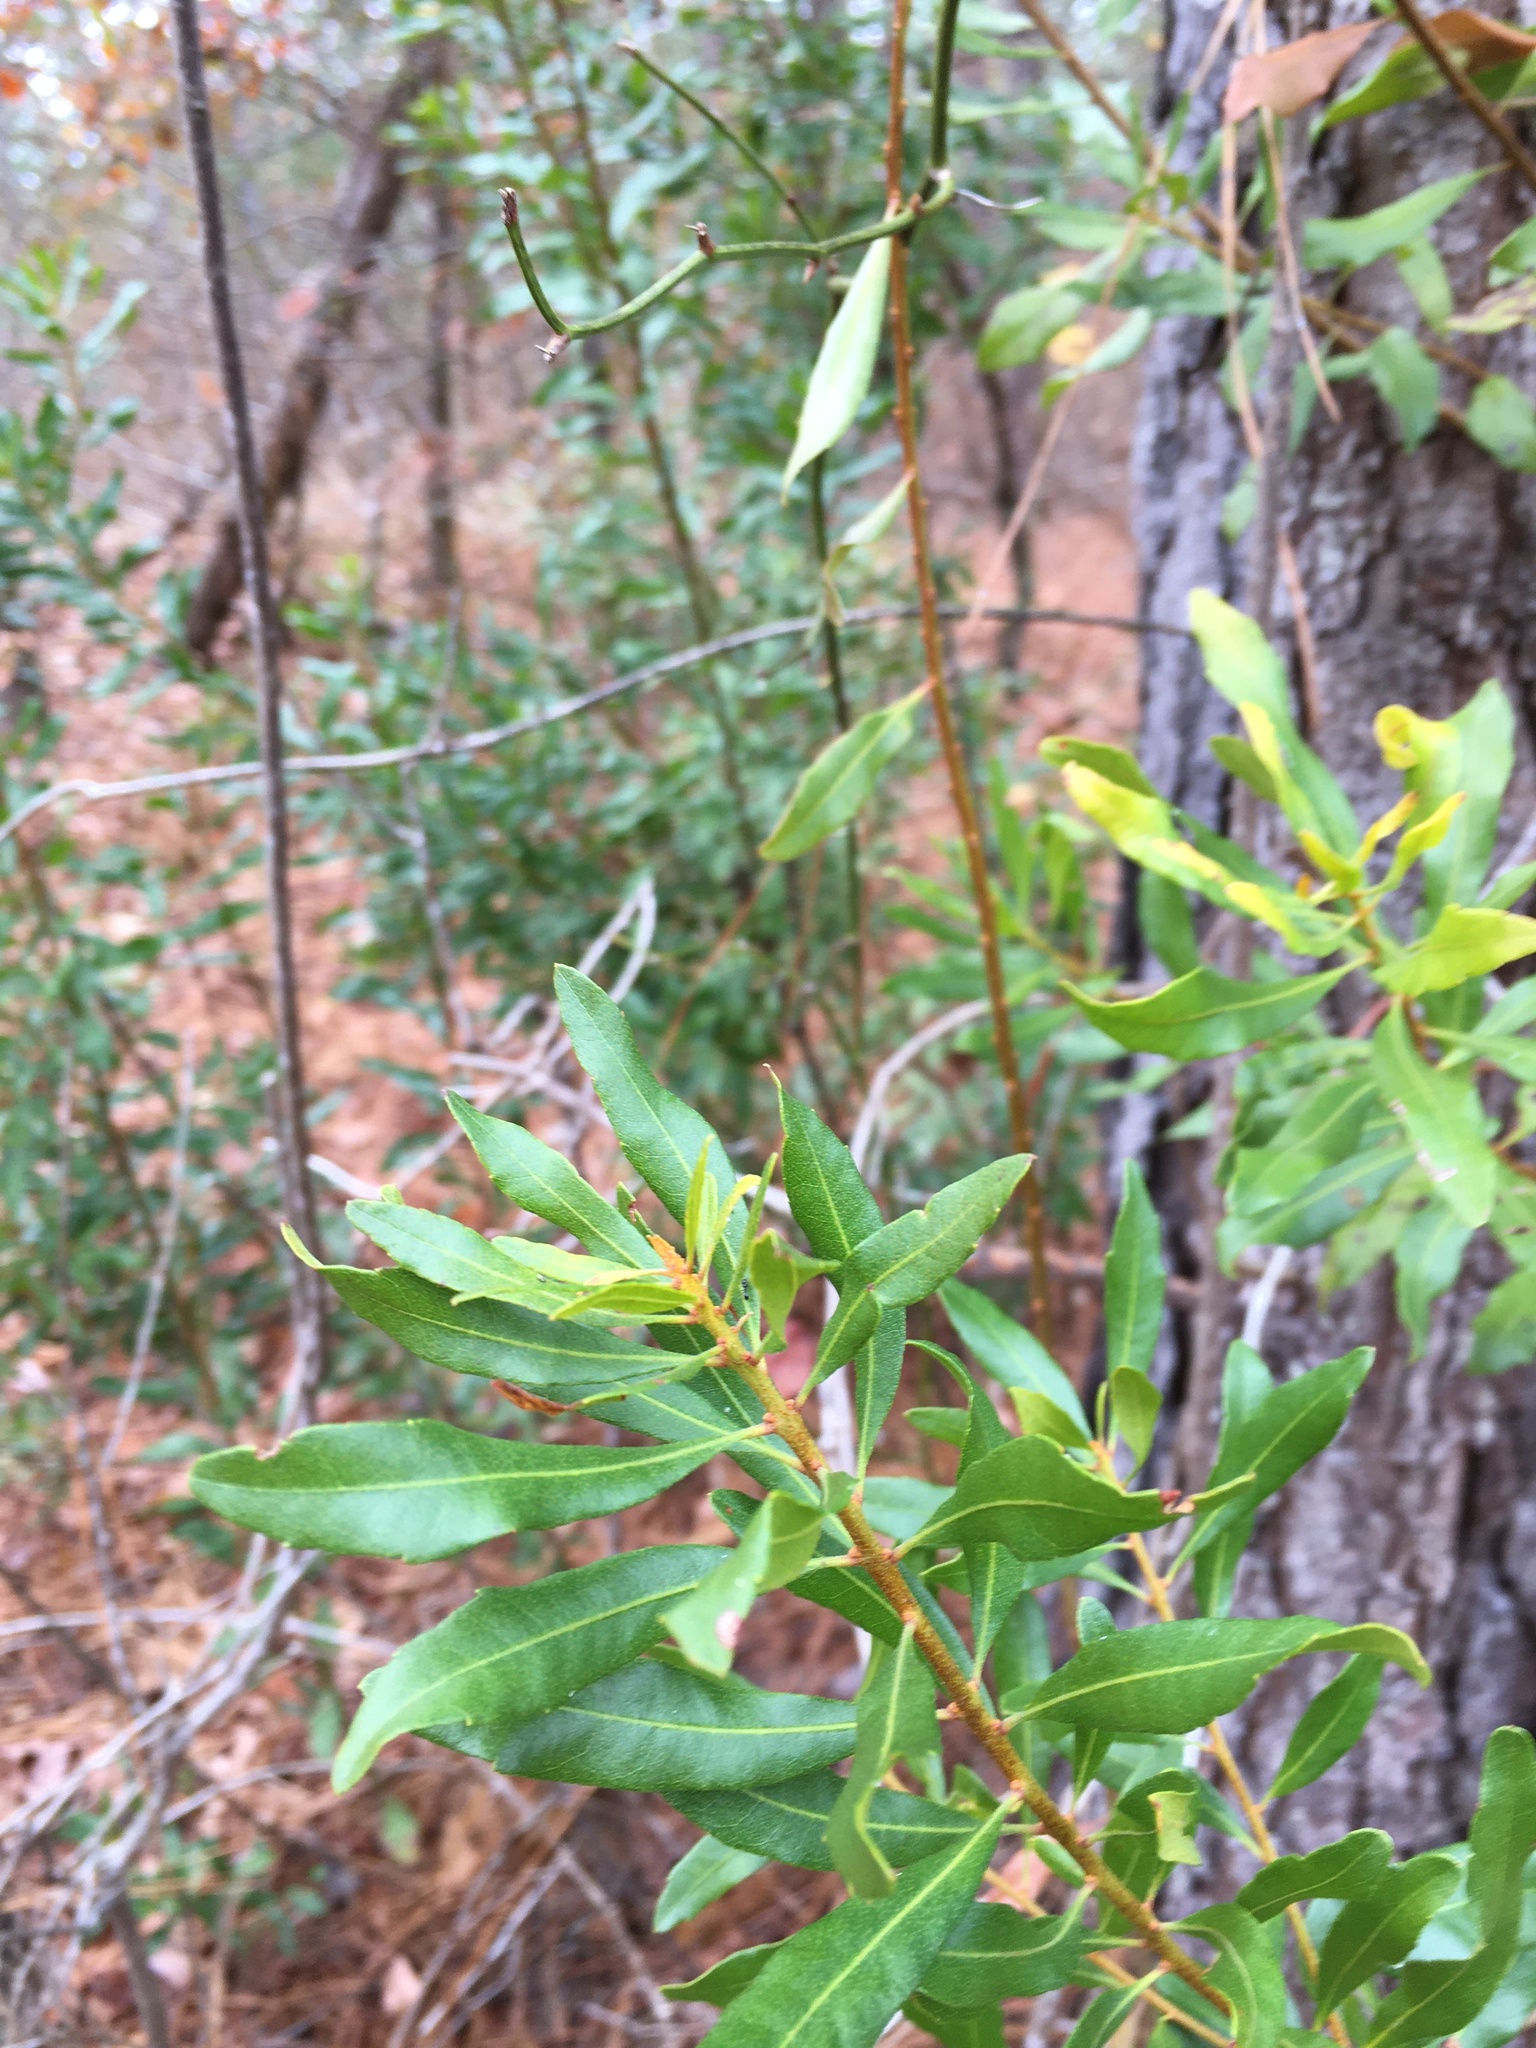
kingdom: Plantae
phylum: Tracheophyta
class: Magnoliopsida
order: Fagales
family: Myricaceae
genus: Morella
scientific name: Morella cerifera
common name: Wax myrtle
